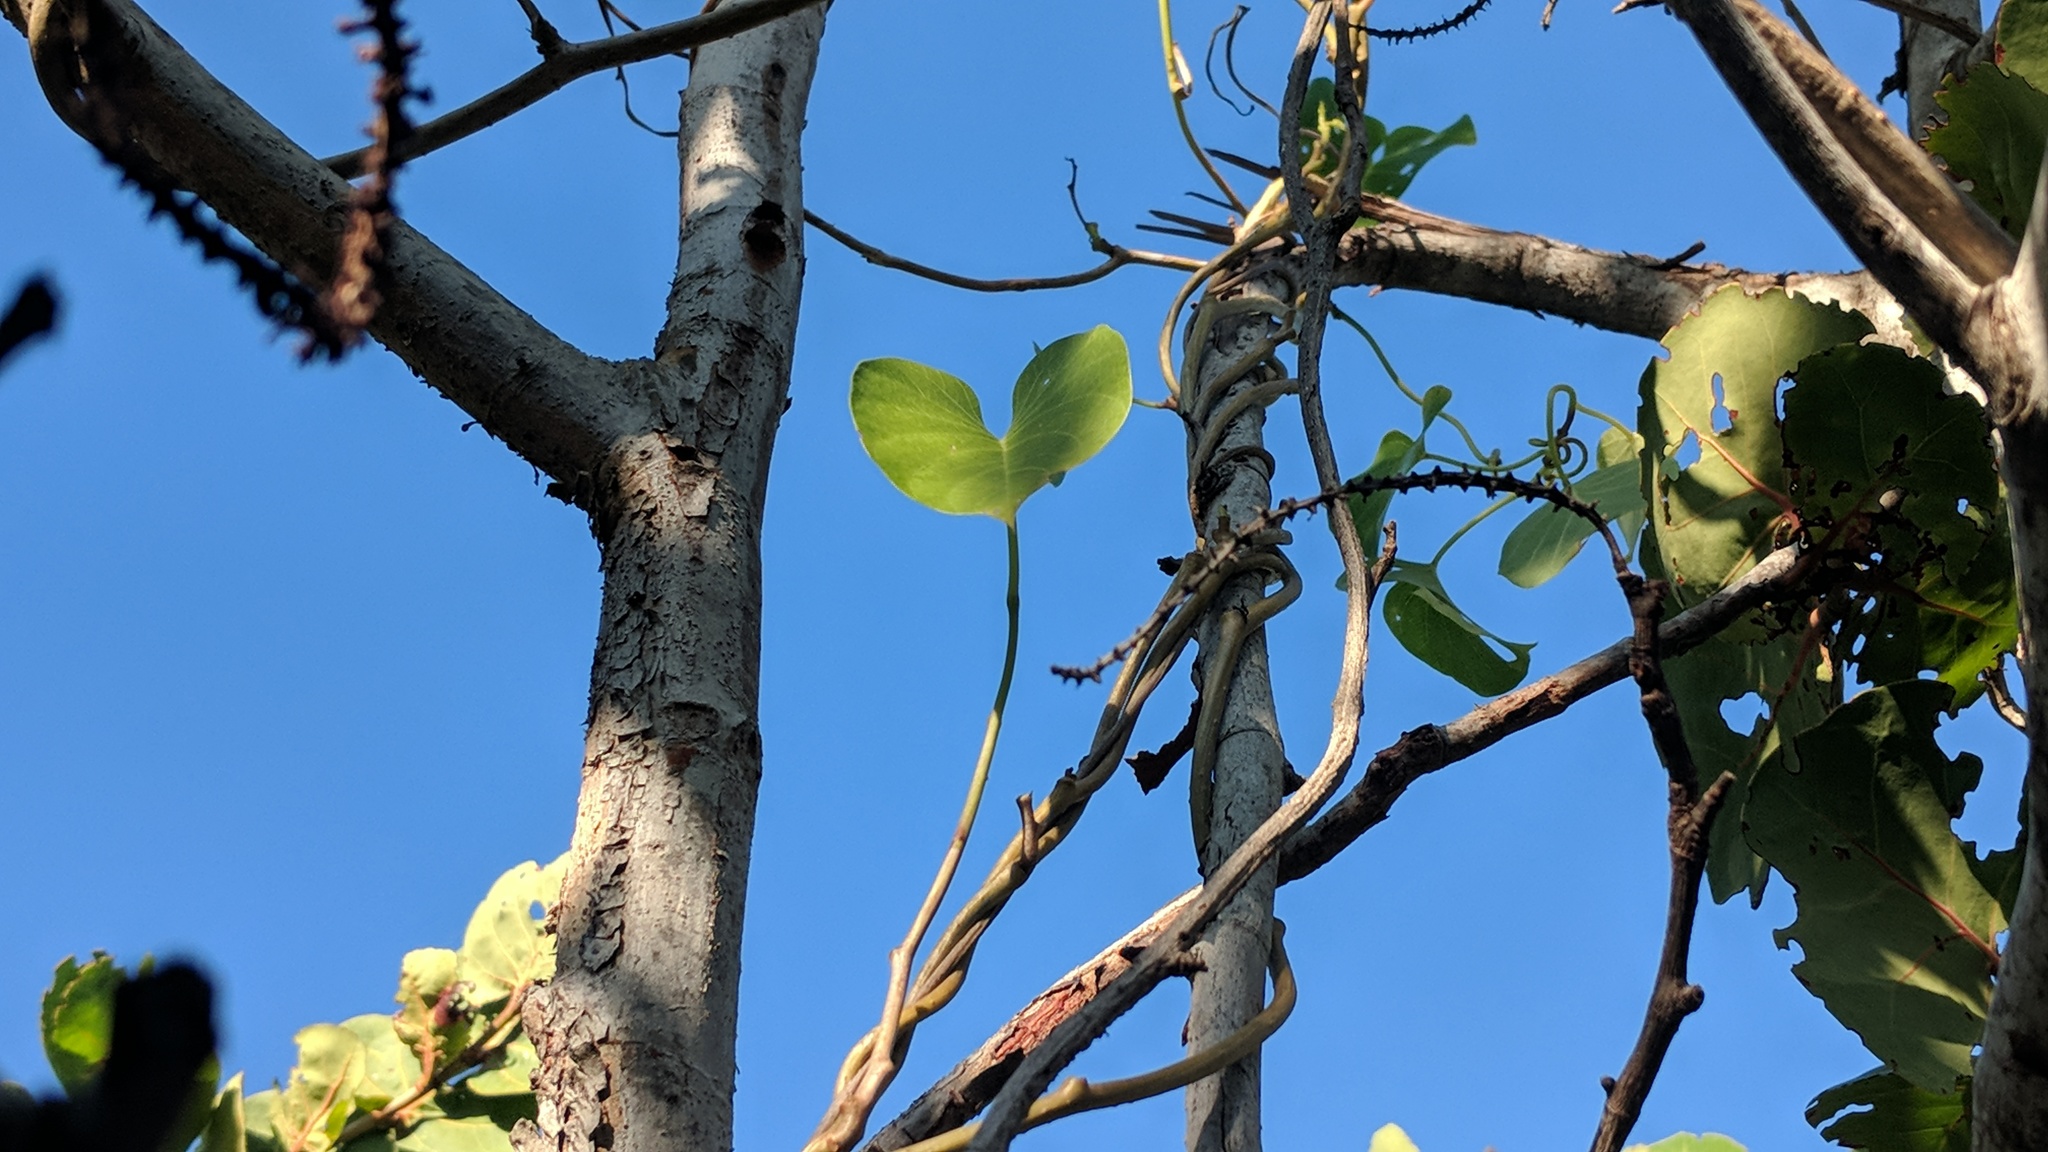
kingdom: Plantae
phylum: Tracheophyta
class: Magnoliopsida
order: Solanales
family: Convolvulaceae
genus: Ipomoea
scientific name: Ipomoea violacea
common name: Beach moonflower
